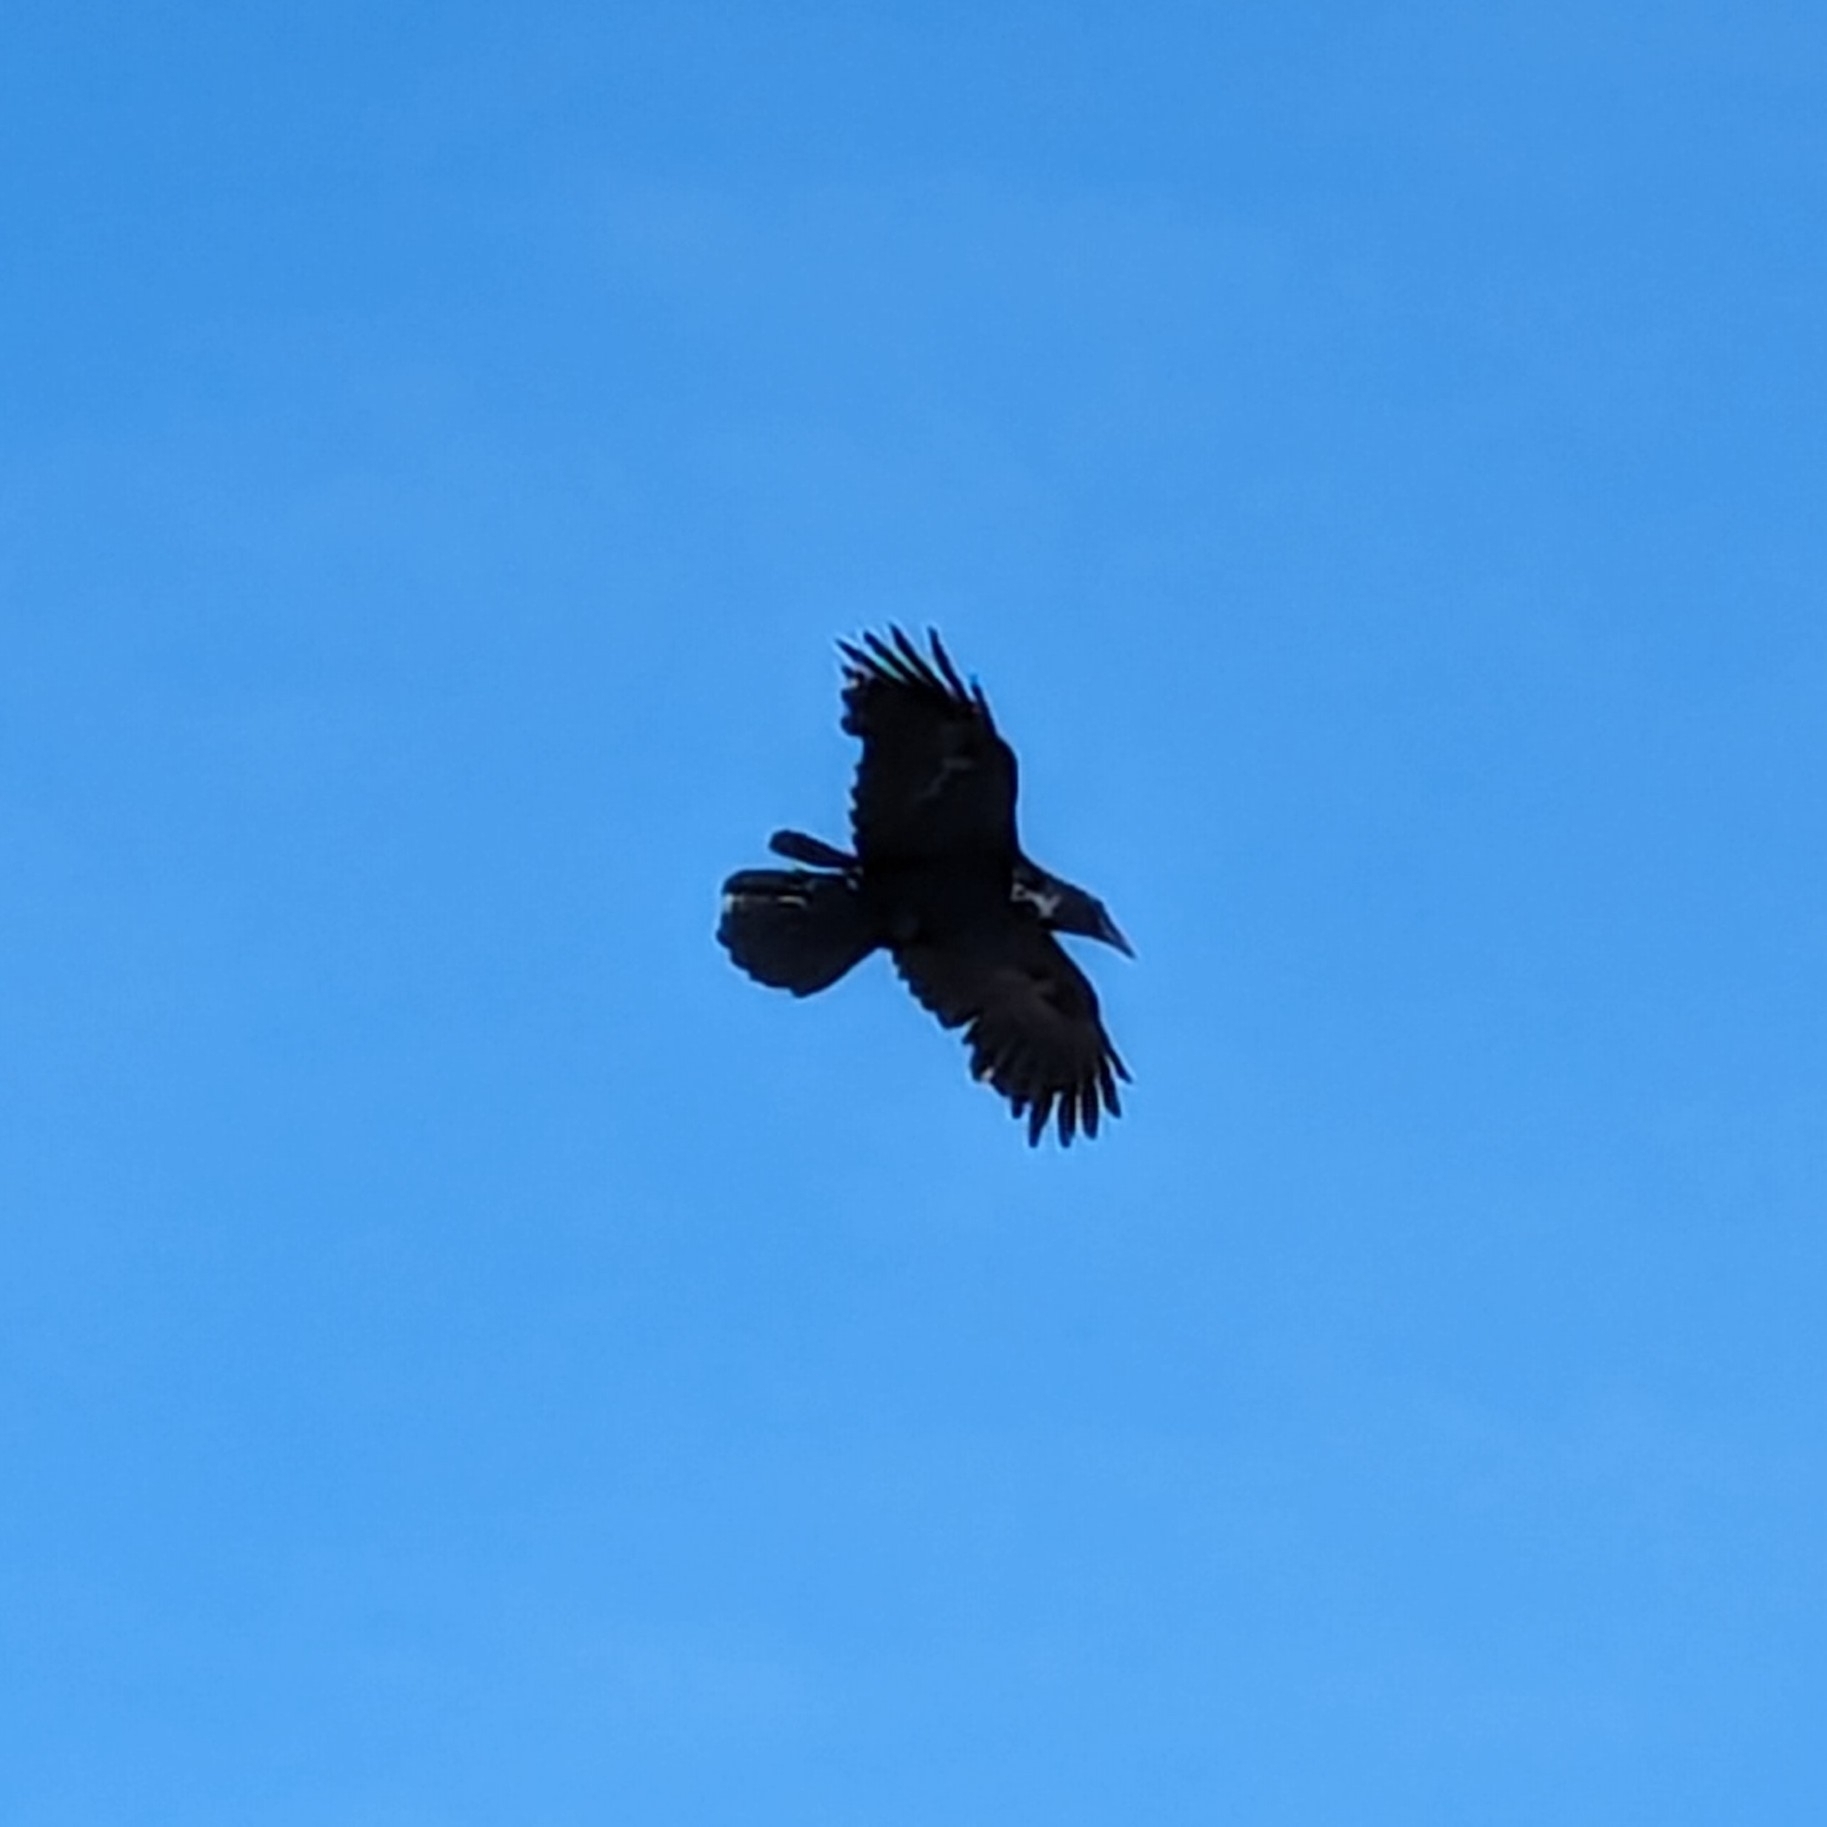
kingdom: Animalia
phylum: Chordata
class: Aves
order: Passeriformes
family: Corvidae
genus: Corvus
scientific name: Corvus corax
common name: Common raven
